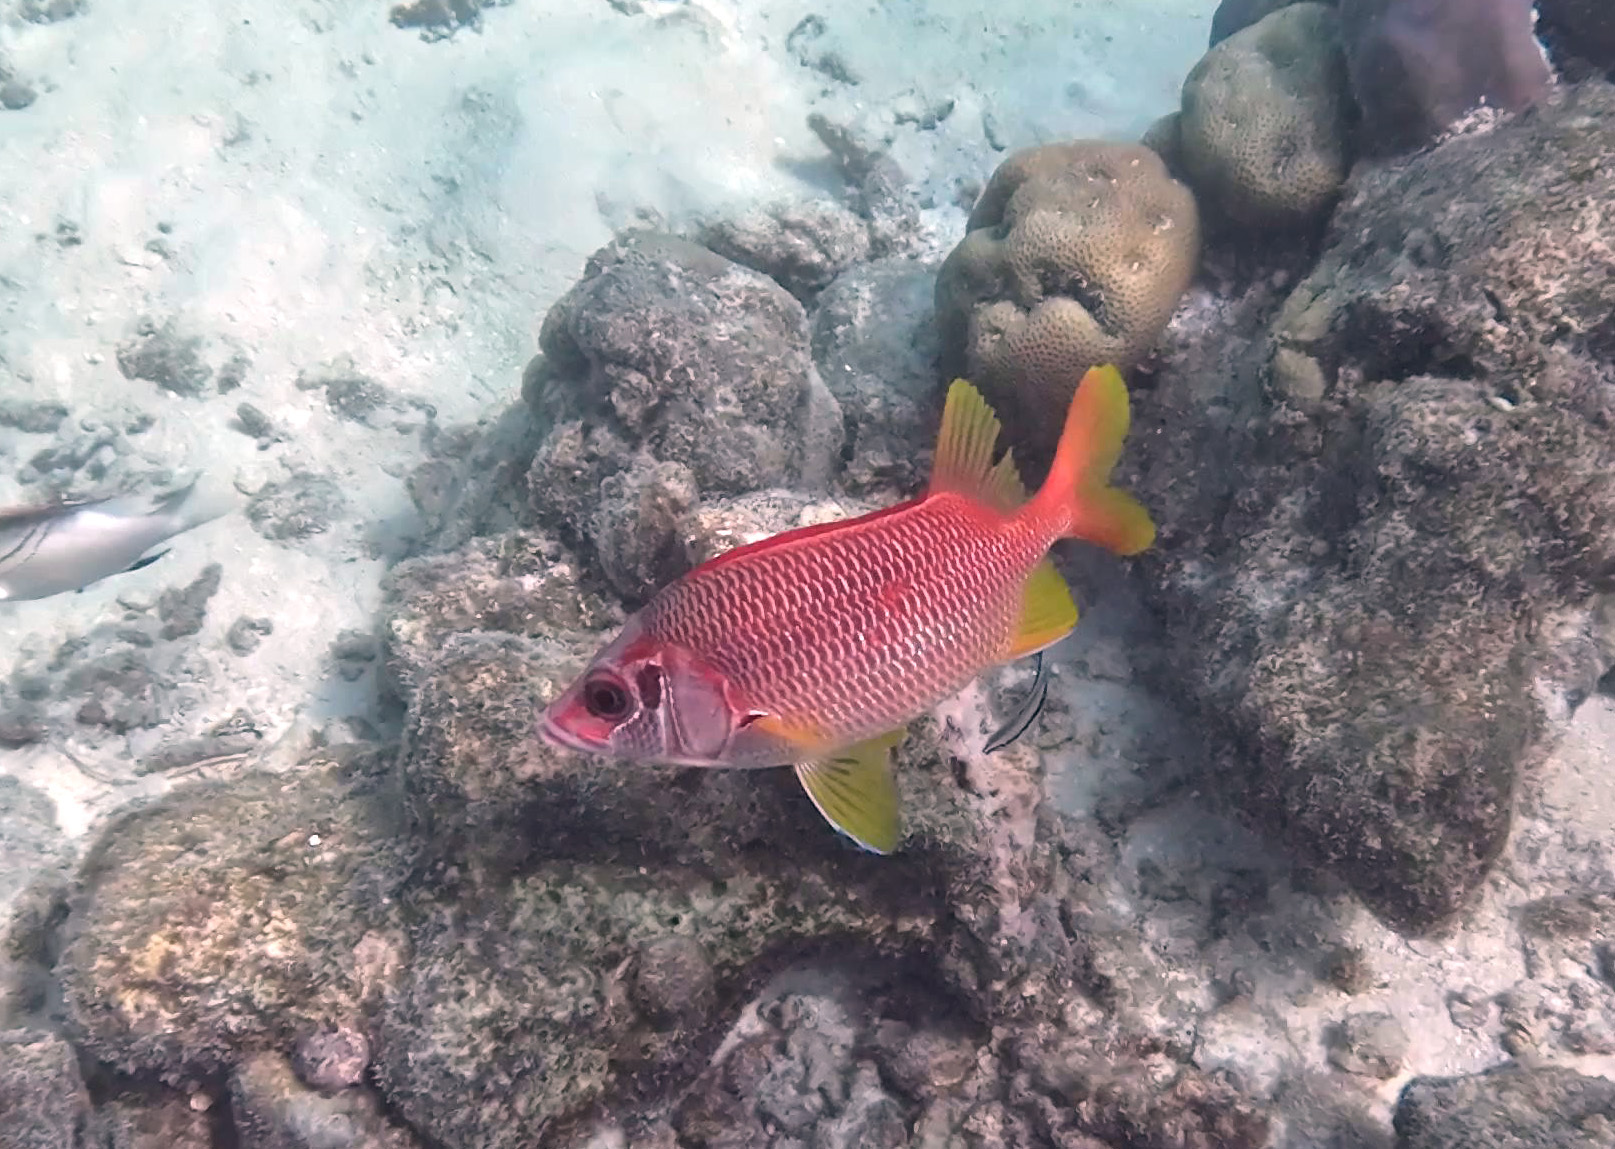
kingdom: Animalia
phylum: Chordata
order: Beryciformes
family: Holocentridae
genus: Sargocentron
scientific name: Sargocentron spiniferum
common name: Giant squirrelfish
